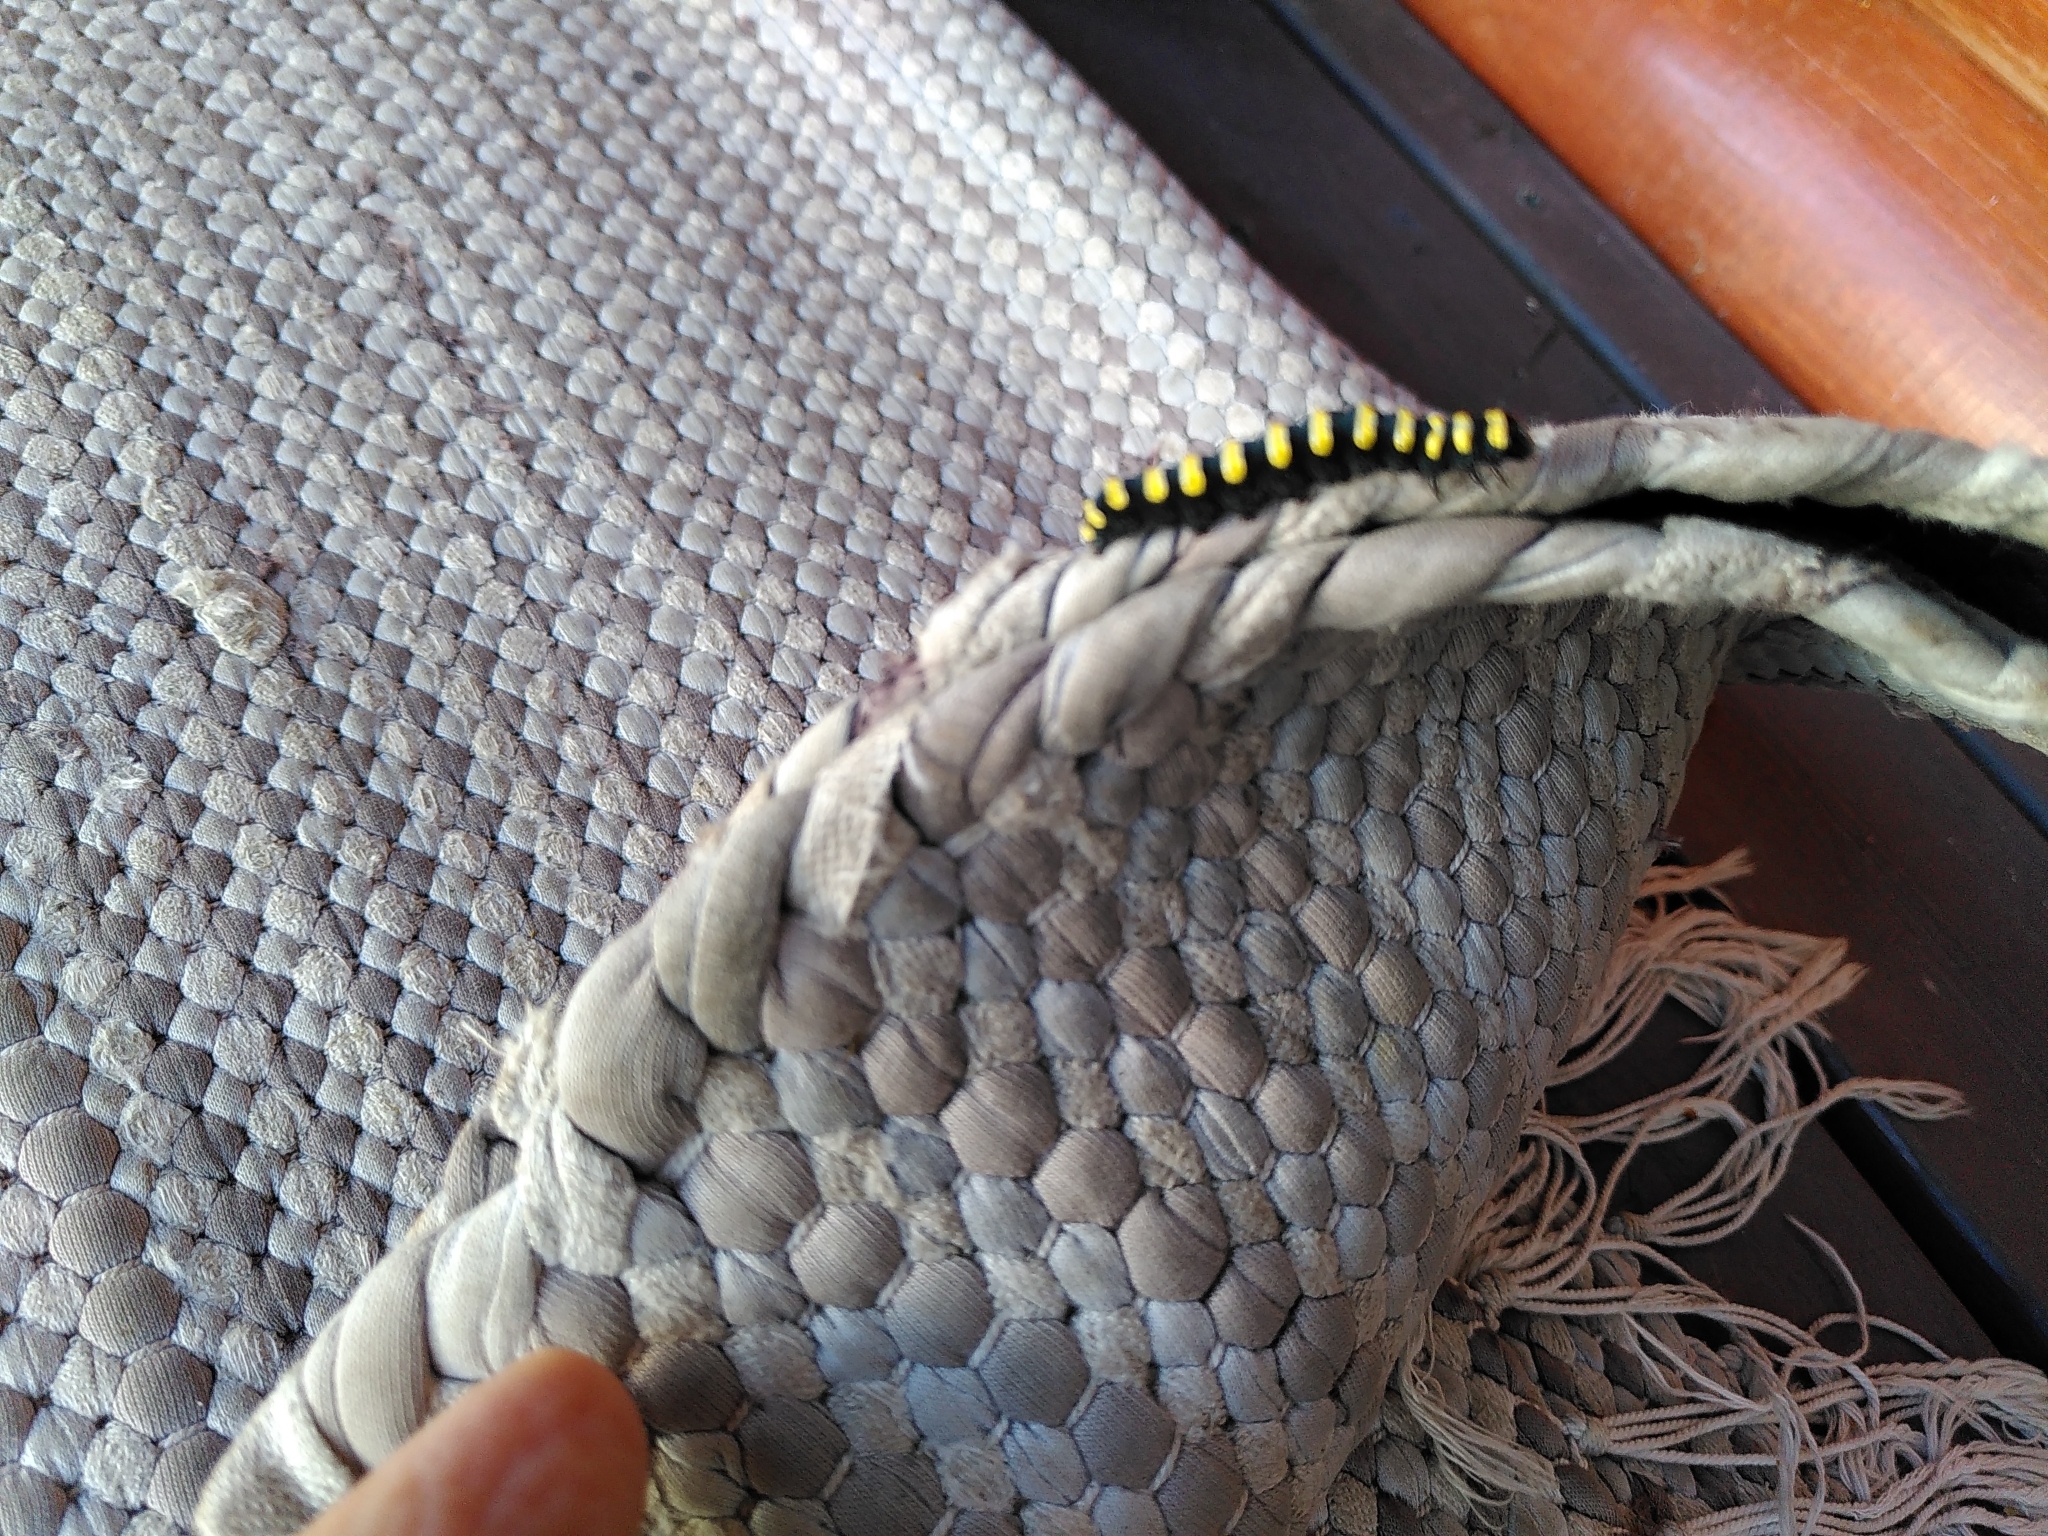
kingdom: Animalia
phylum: Arthropoda
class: Insecta
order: Lepidoptera
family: Noctuidae
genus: Acronicta
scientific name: Acronicta alni
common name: Alder moth
